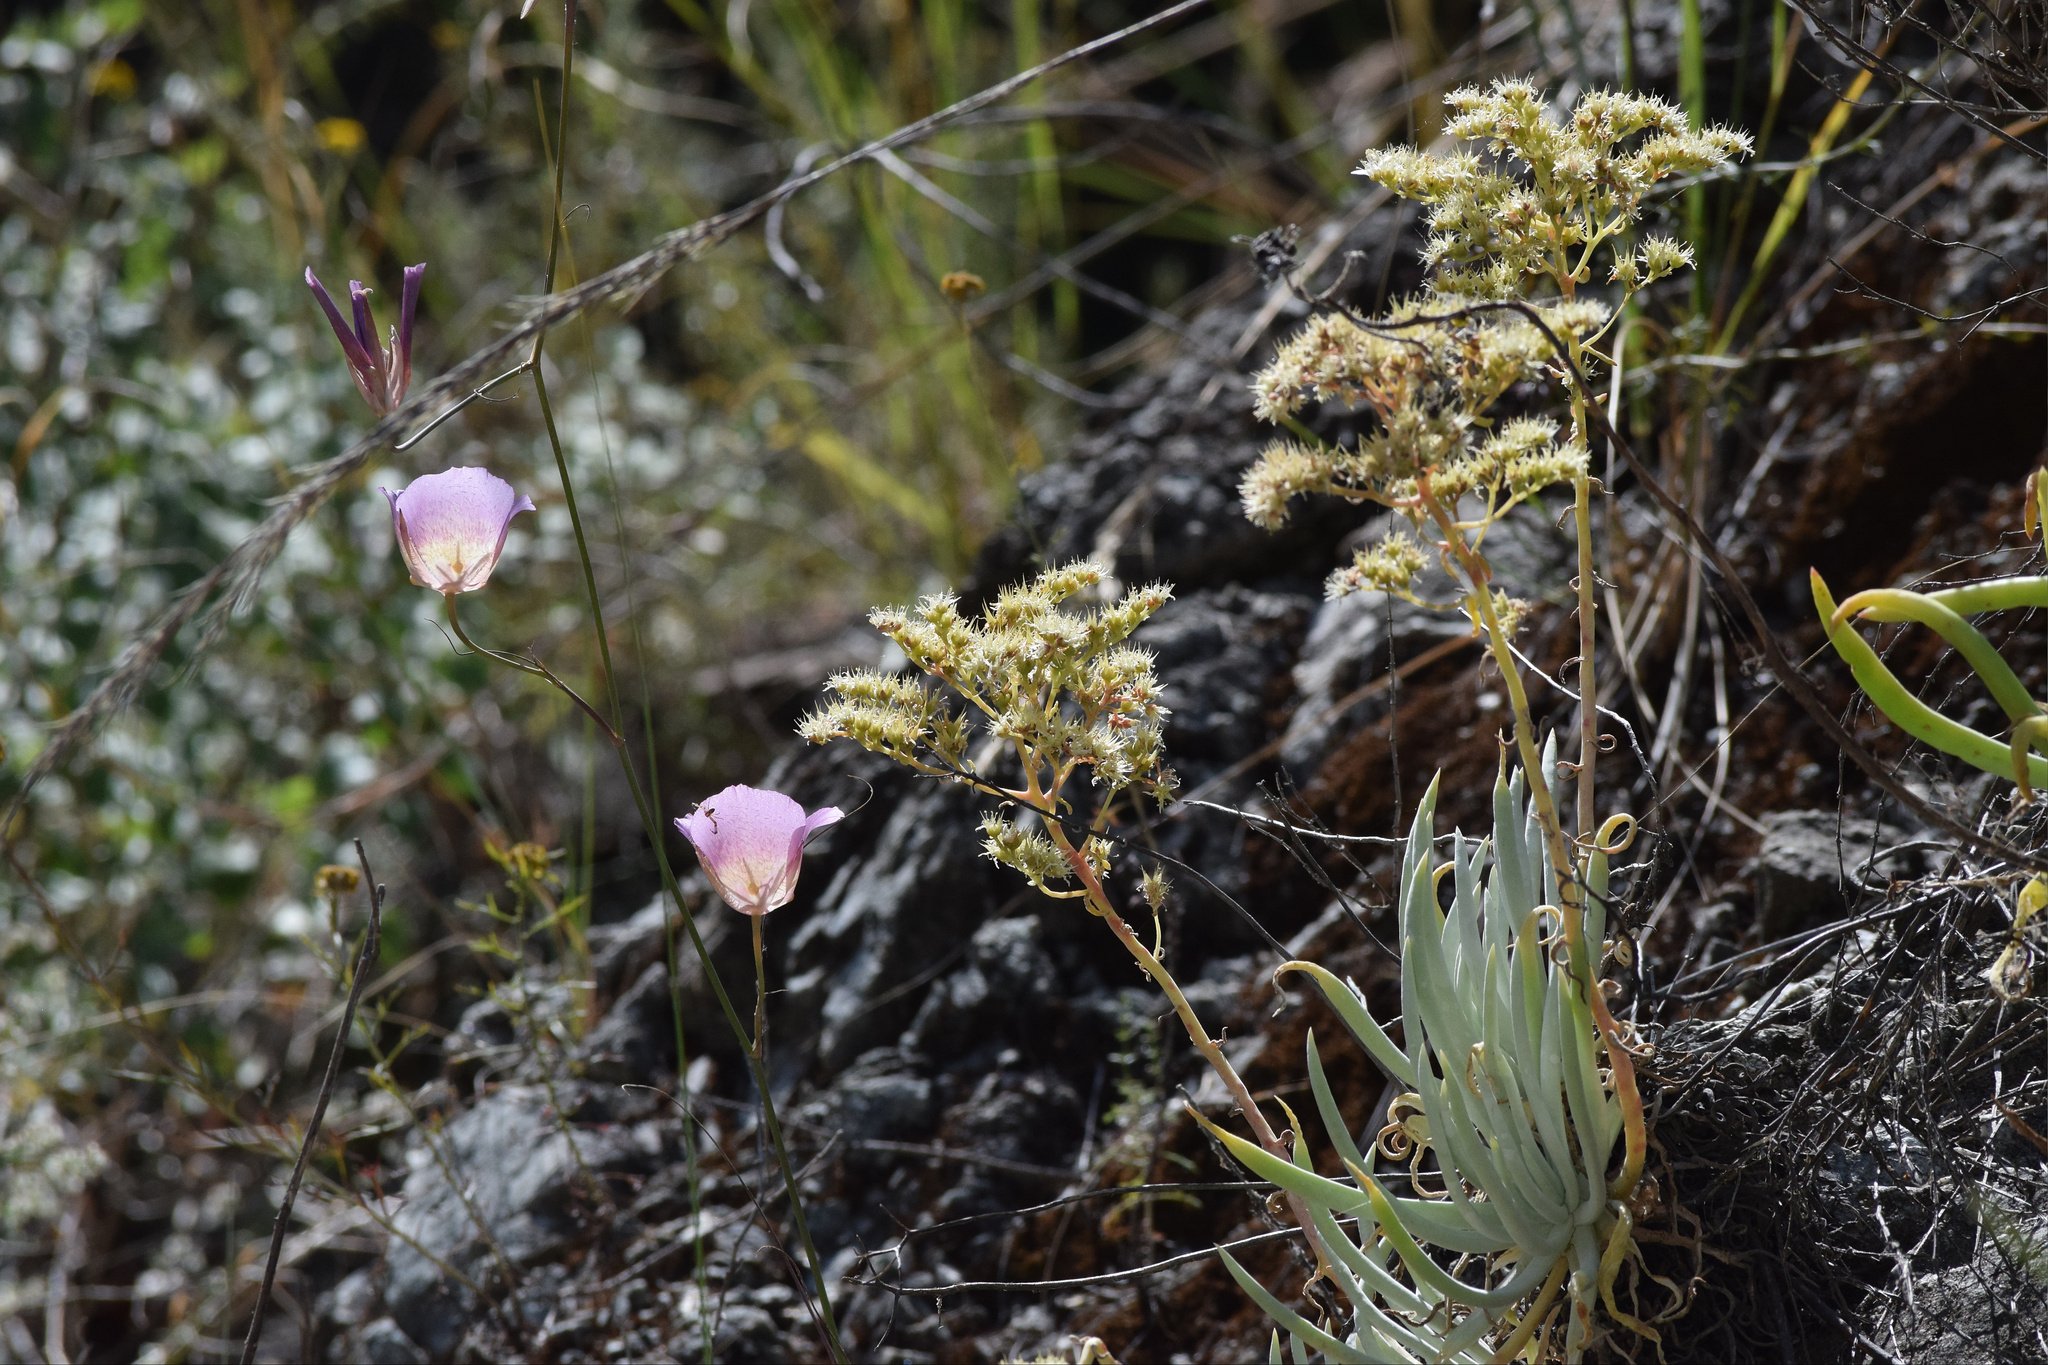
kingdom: Plantae
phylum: Tracheophyta
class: Magnoliopsida
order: Saxifragales
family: Crassulaceae
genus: Dudleya
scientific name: Dudleya densiflora
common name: San gabriel mountains dudleya
